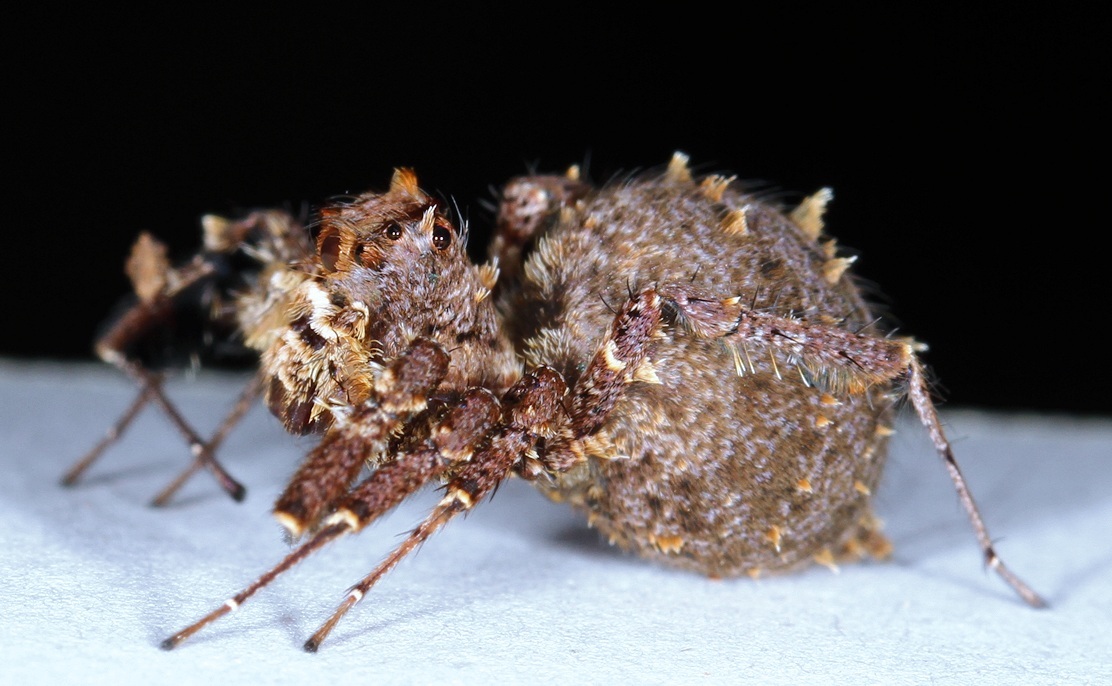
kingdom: Animalia
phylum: Arthropoda
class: Arachnida
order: Araneae
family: Salticidae
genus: Portia
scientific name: Portia schultzi
